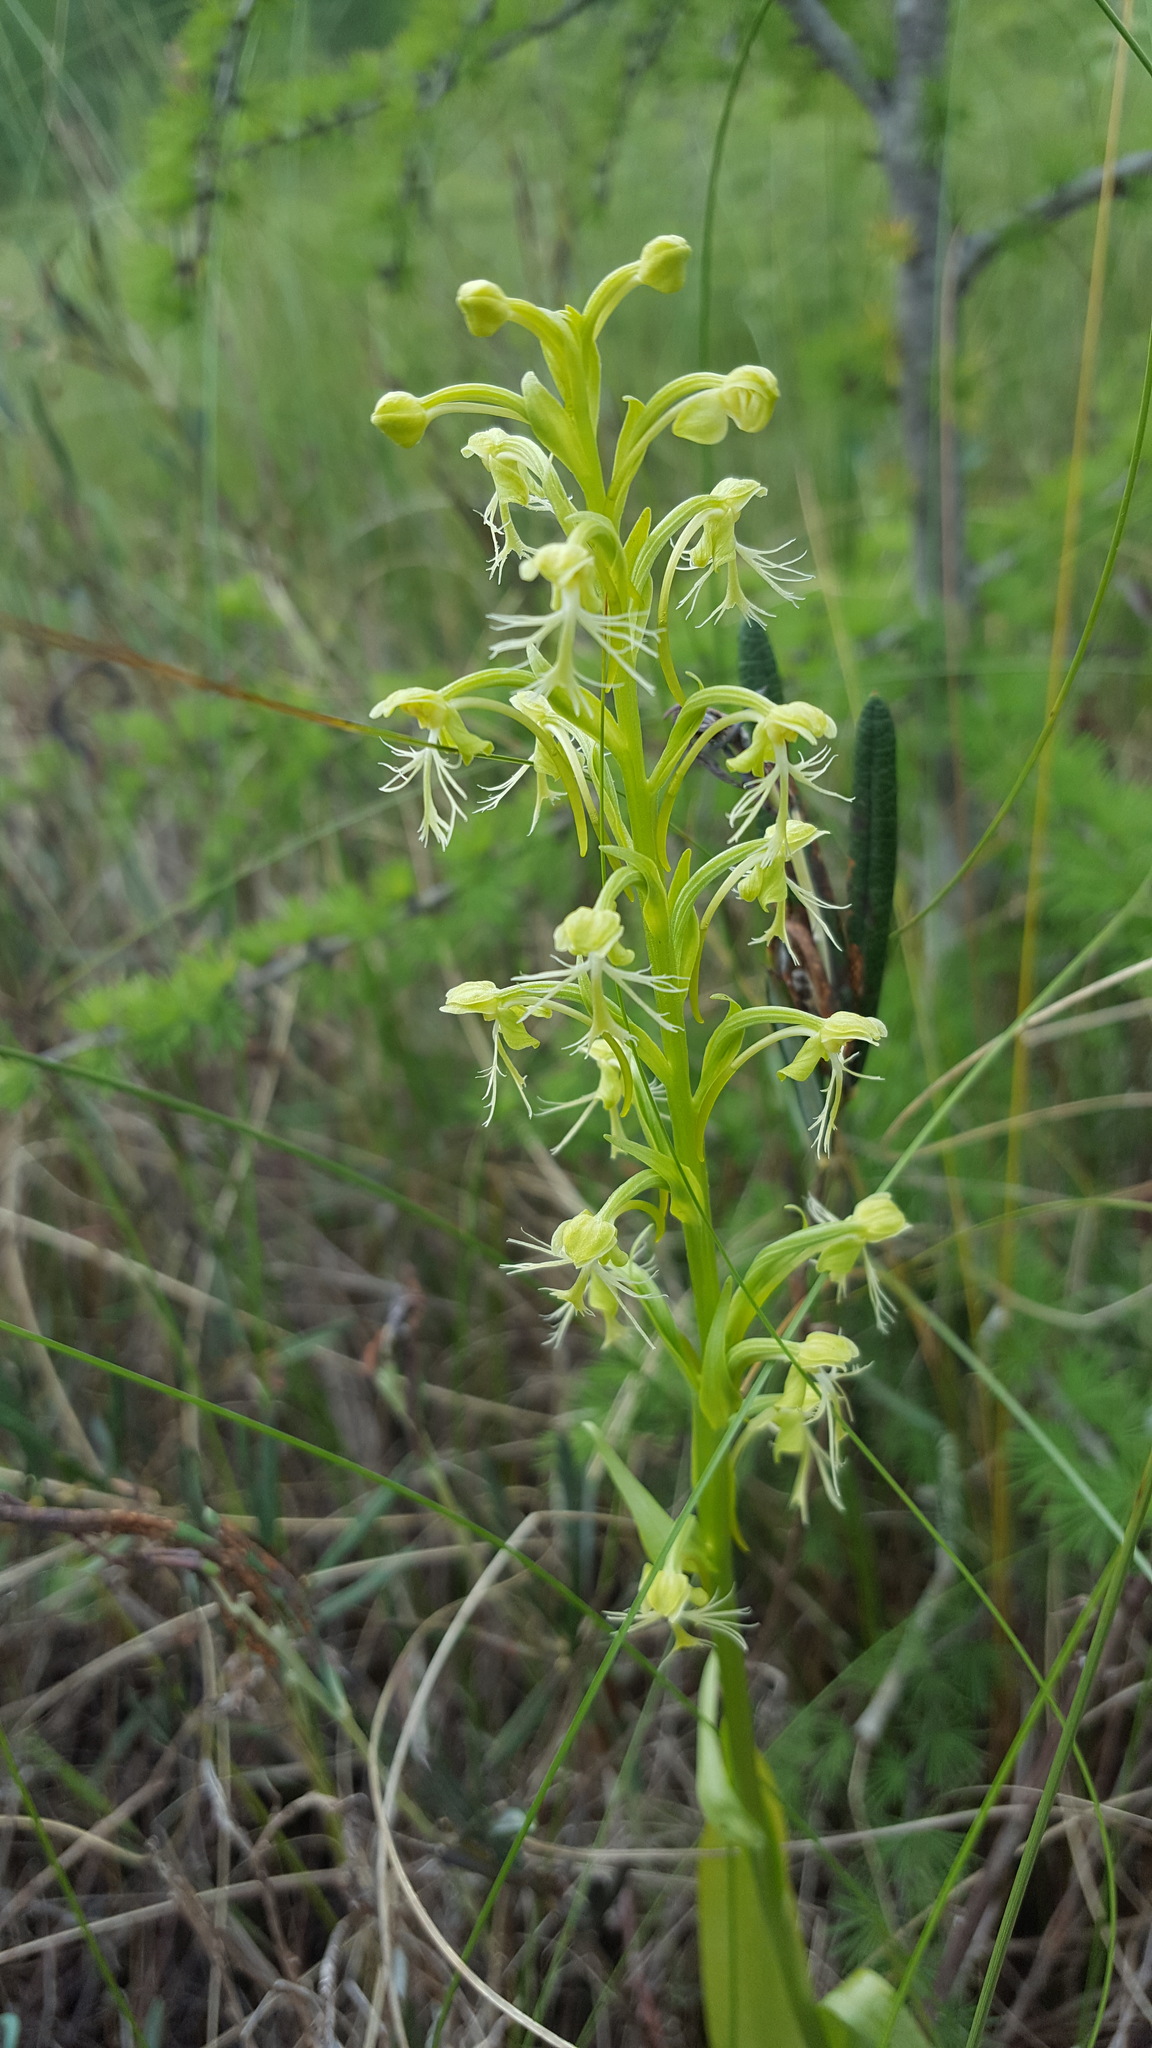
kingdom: Plantae
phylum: Tracheophyta
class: Liliopsida
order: Asparagales
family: Orchidaceae
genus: Platanthera
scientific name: Platanthera lacera
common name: Green fringed orchid
